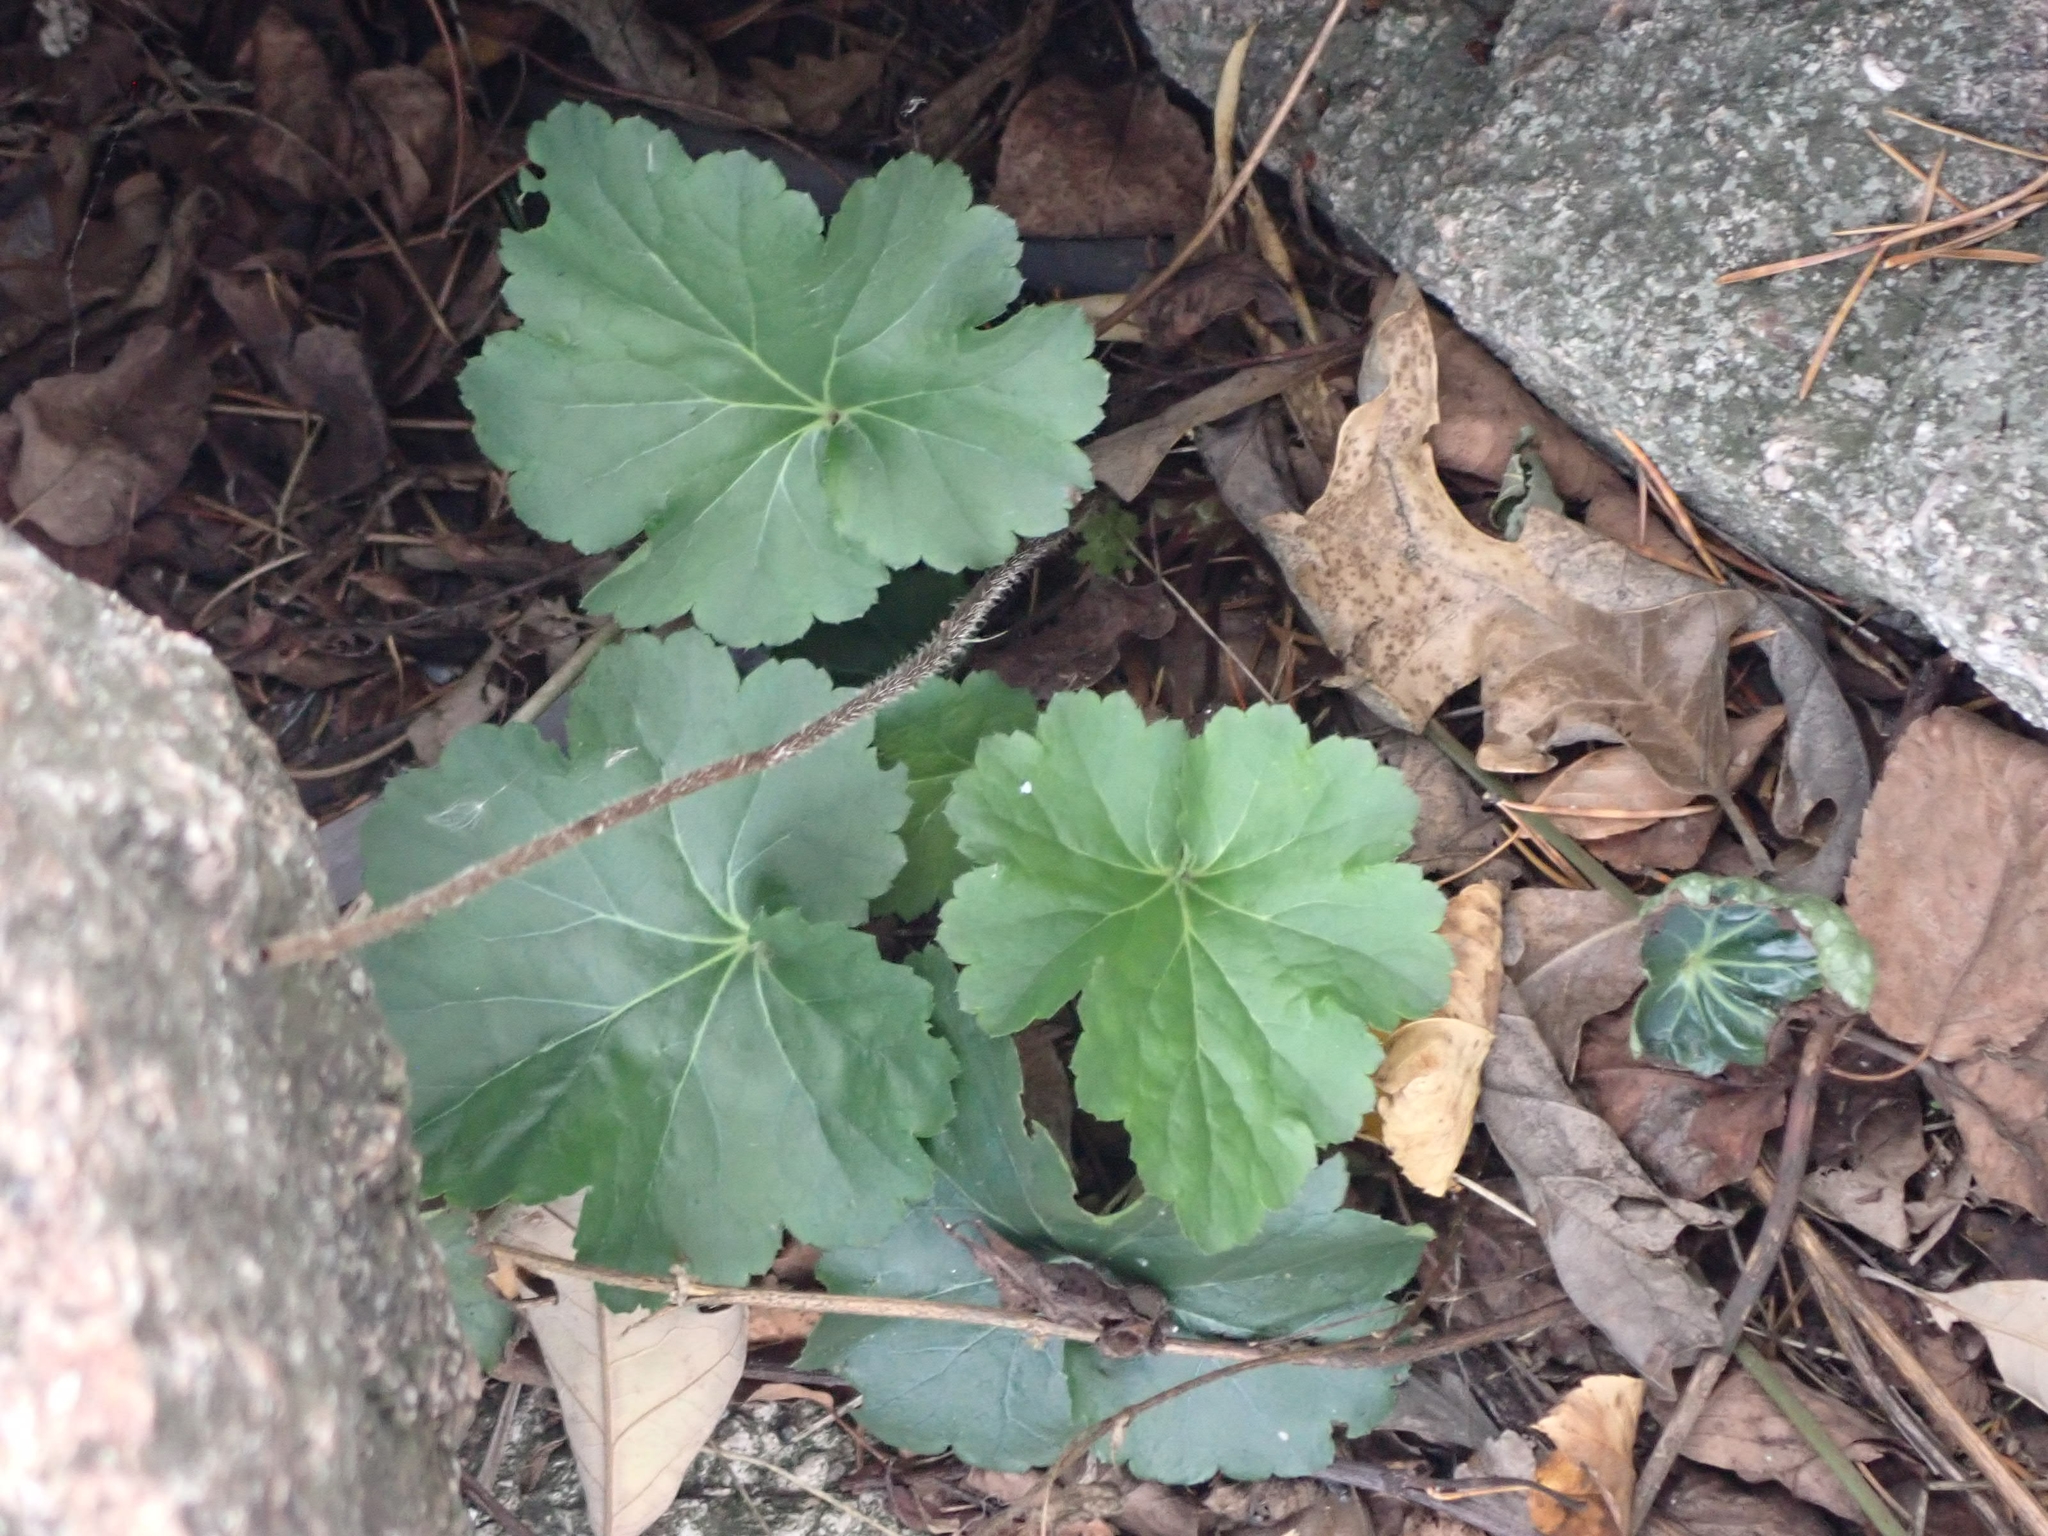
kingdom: Plantae
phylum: Tracheophyta
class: Magnoliopsida
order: Saxifragales
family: Saxifragaceae
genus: Heuchera
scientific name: Heuchera richardsonii
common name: Richardson's alumroot
